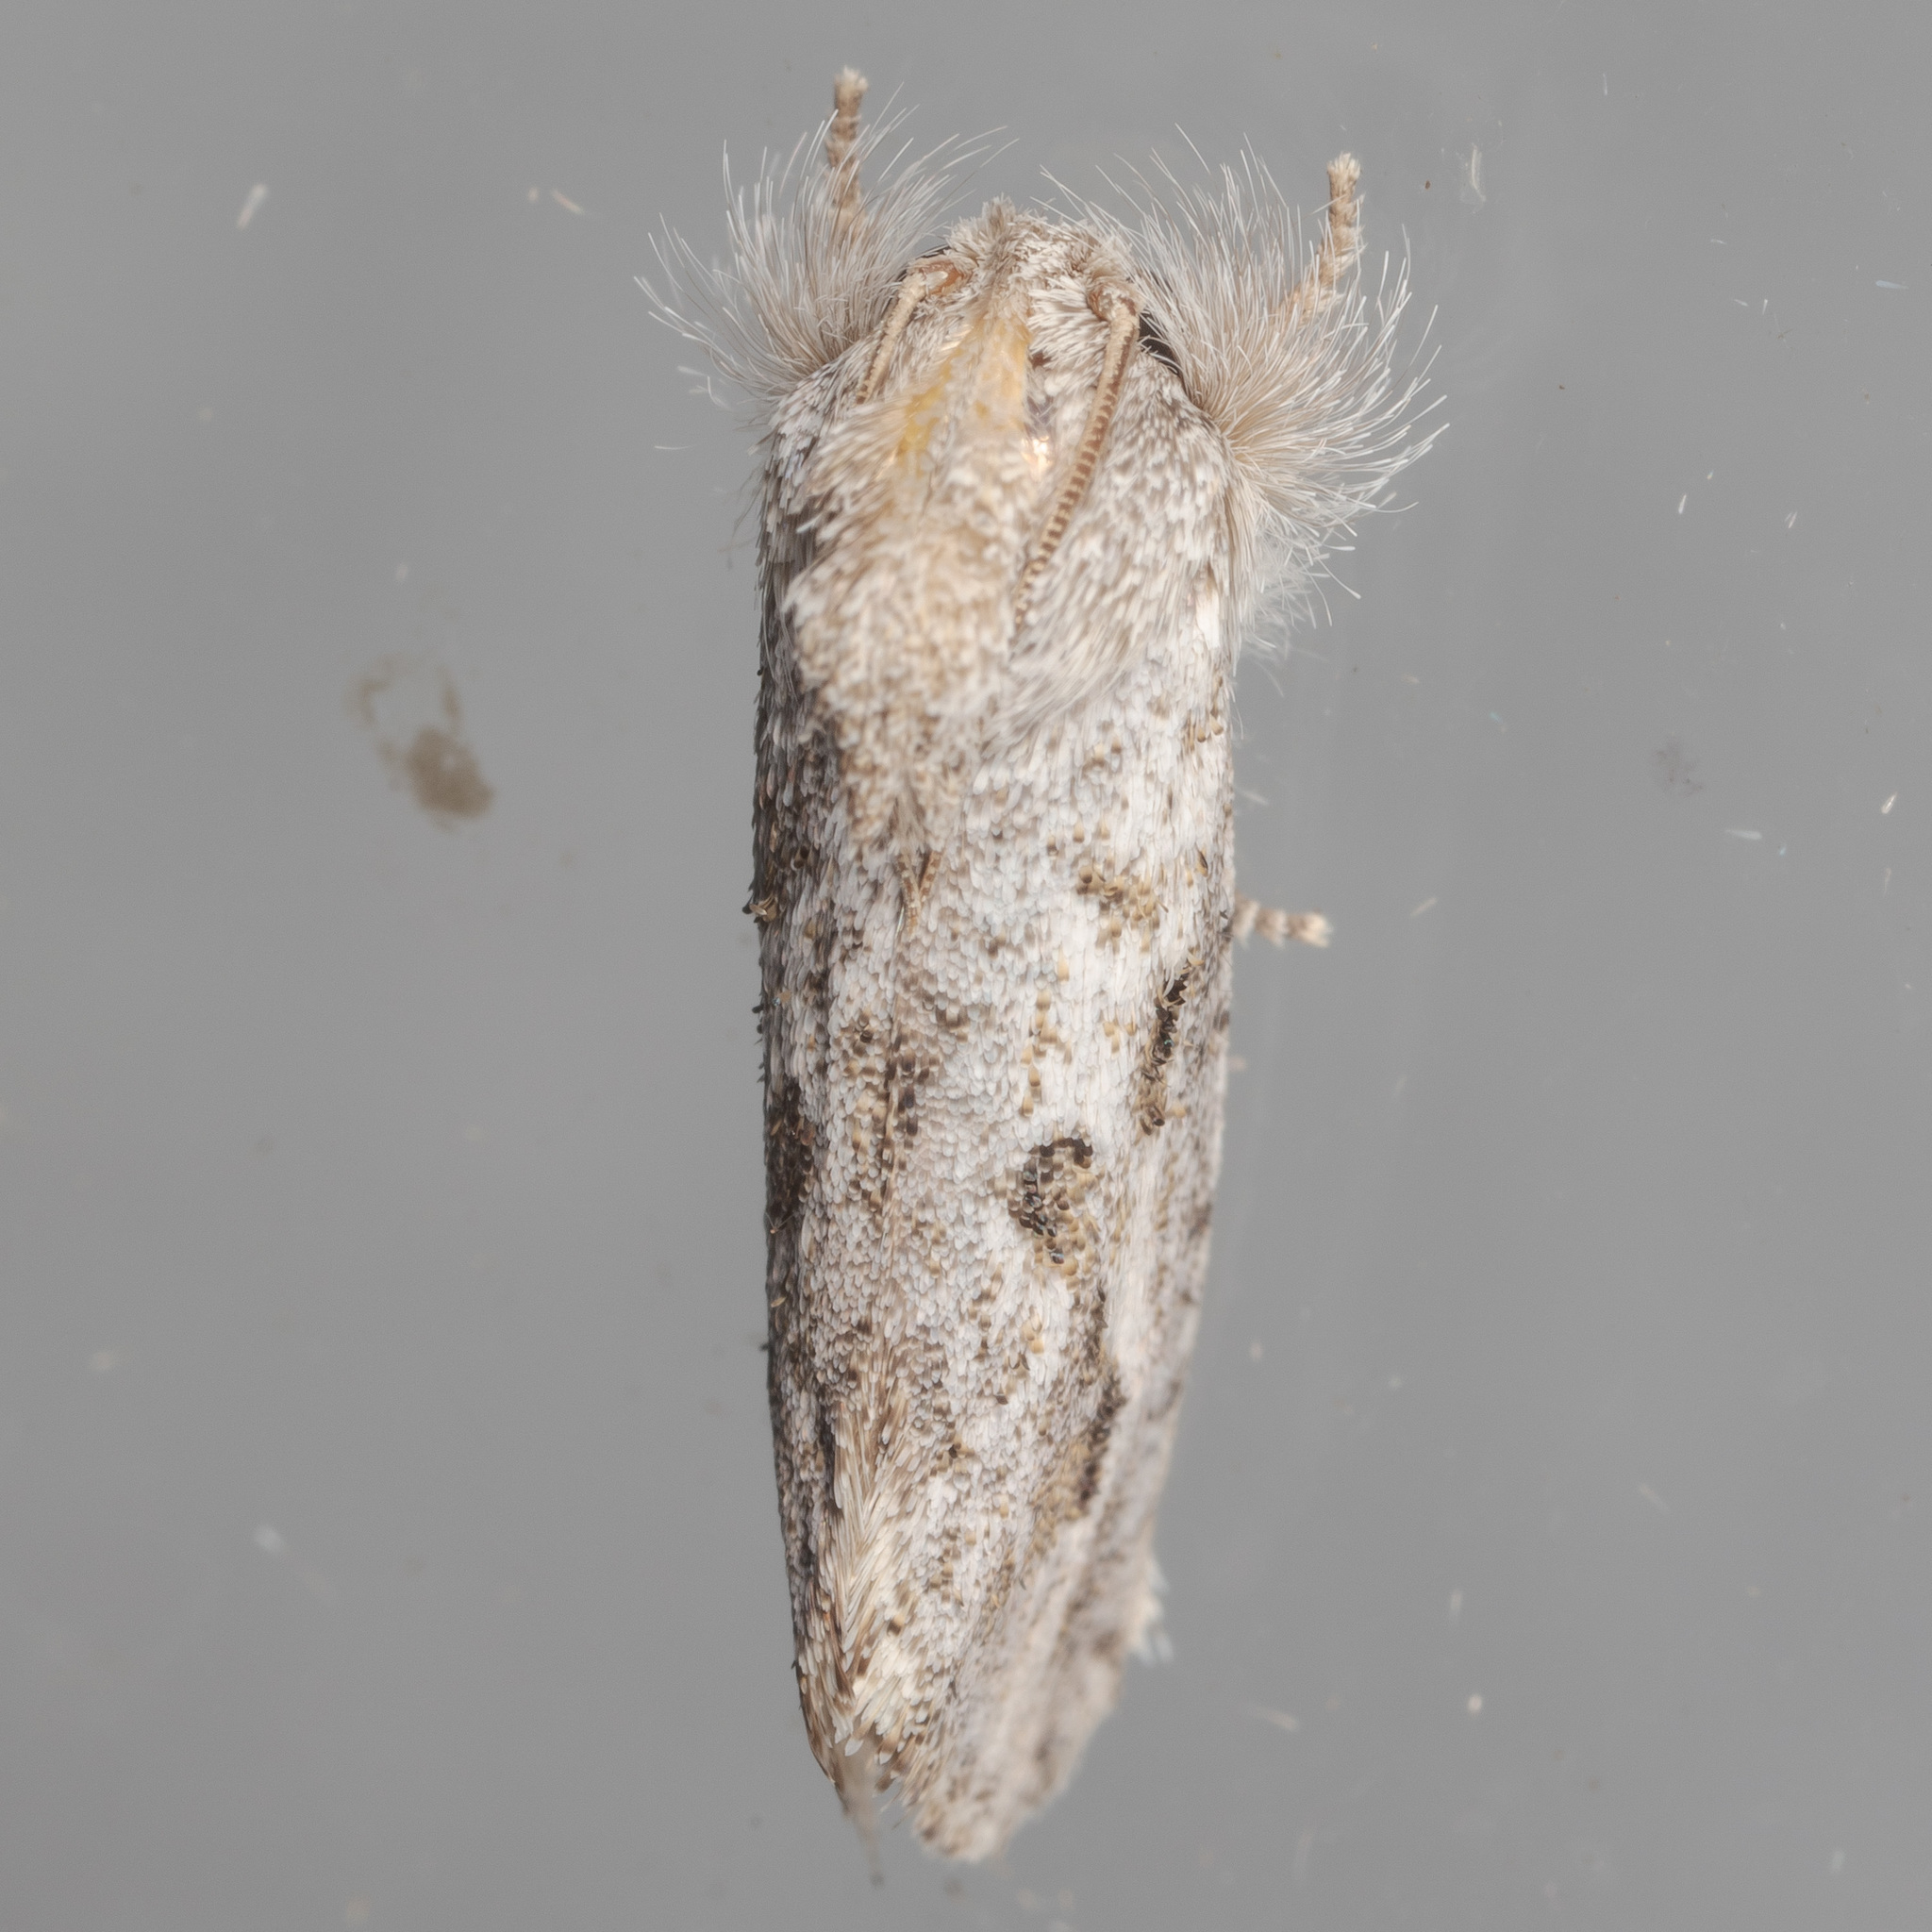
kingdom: Animalia
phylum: Arthropoda
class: Insecta
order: Lepidoptera
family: Tineidae
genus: Acrolophus
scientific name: Acrolophus griseus
